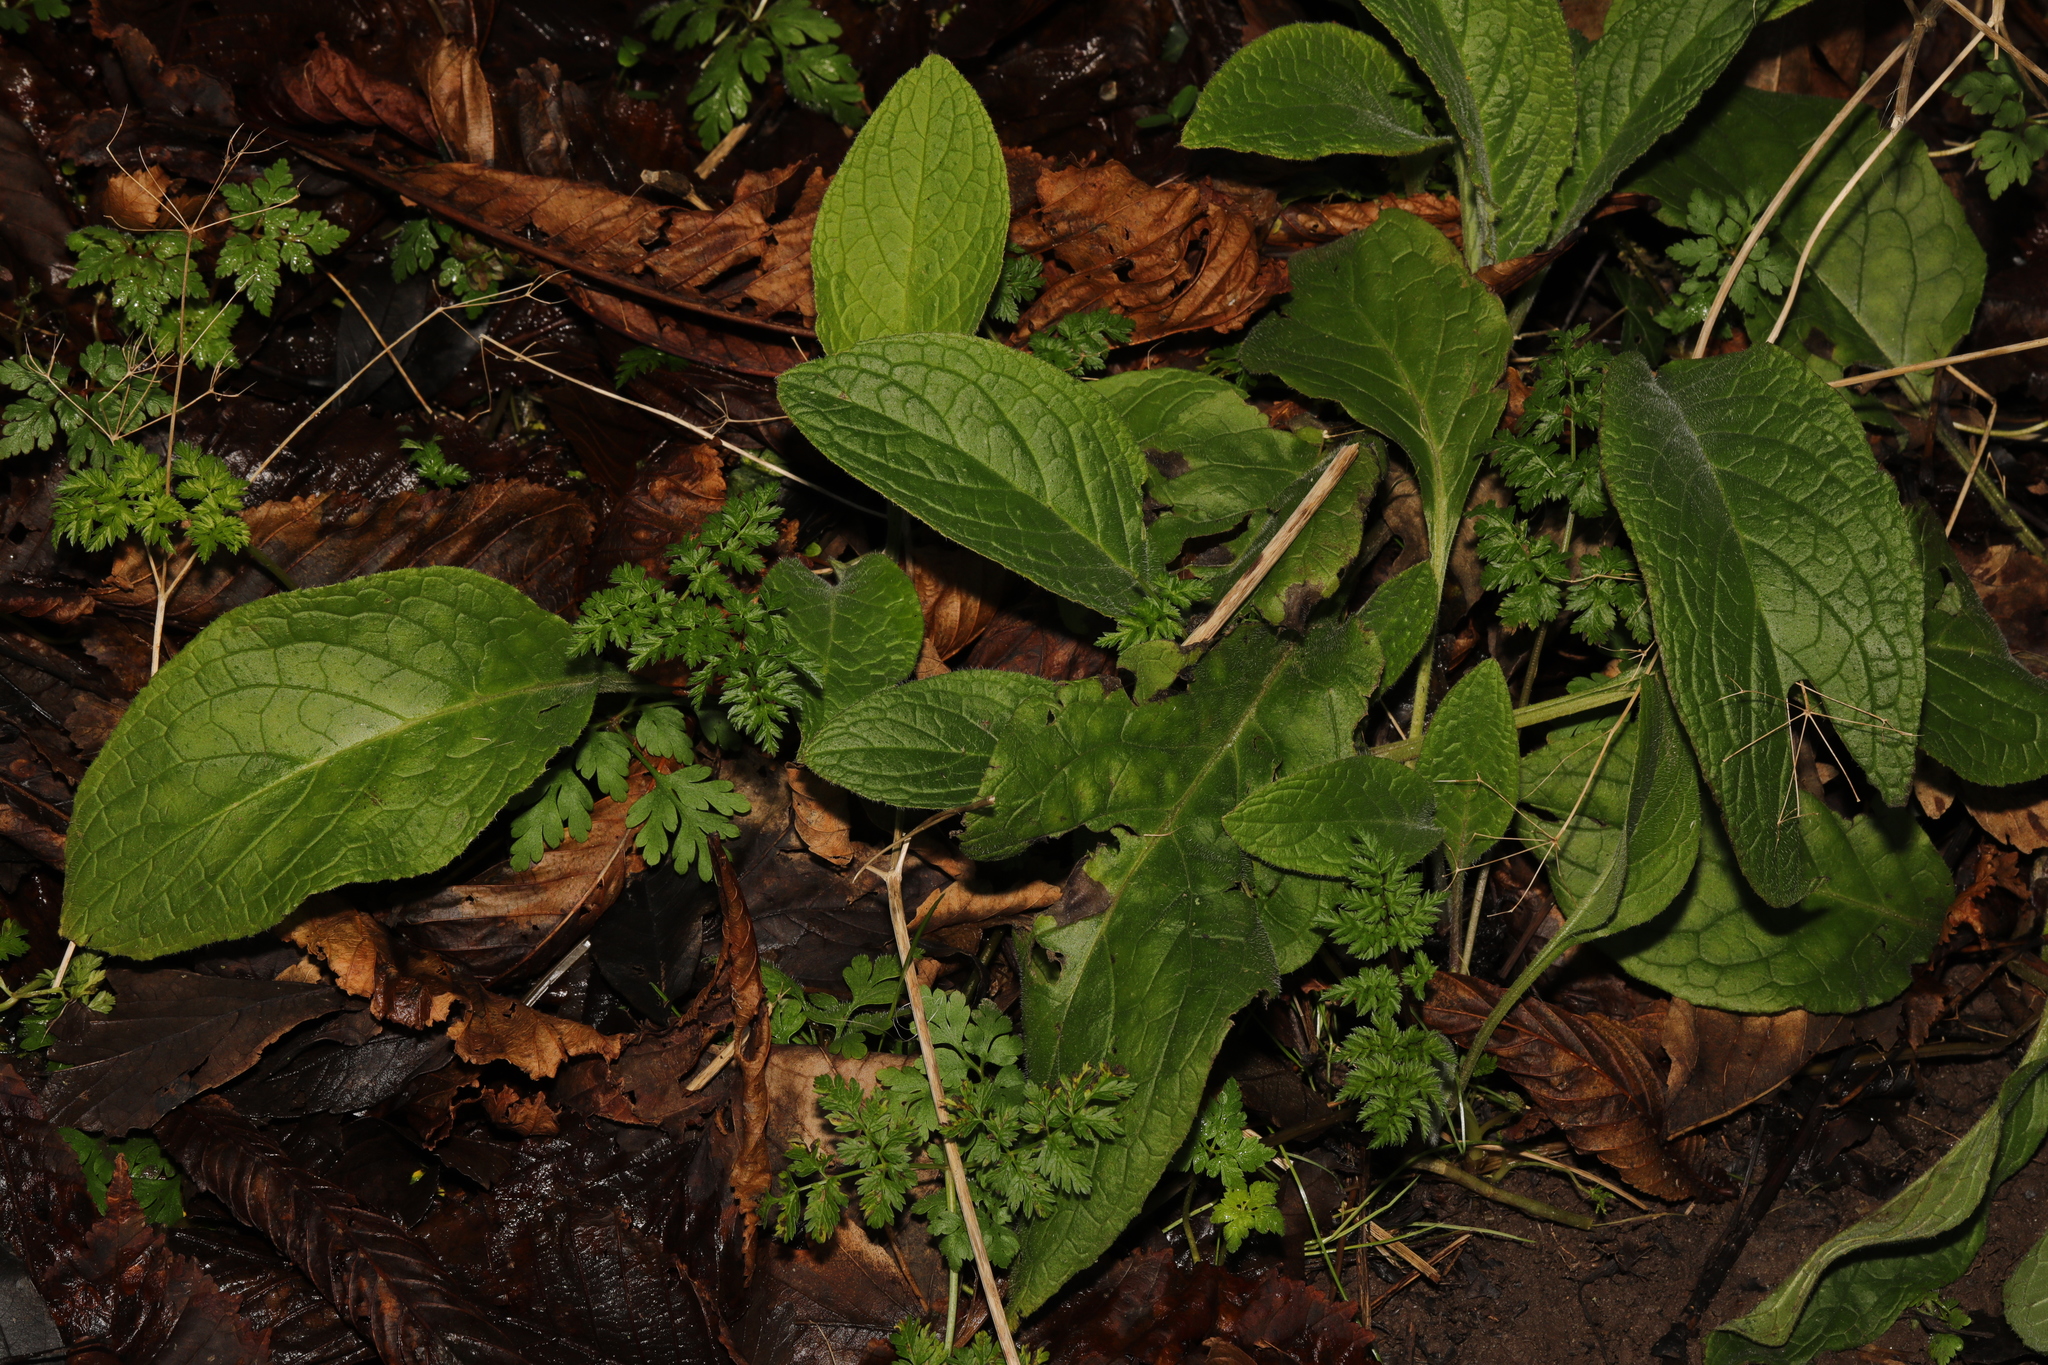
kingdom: Plantae
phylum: Tracheophyta
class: Magnoliopsida
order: Lamiales
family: Plantaginaceae
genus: Digitalis
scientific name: Digitalis purpurea
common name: Foxglove
